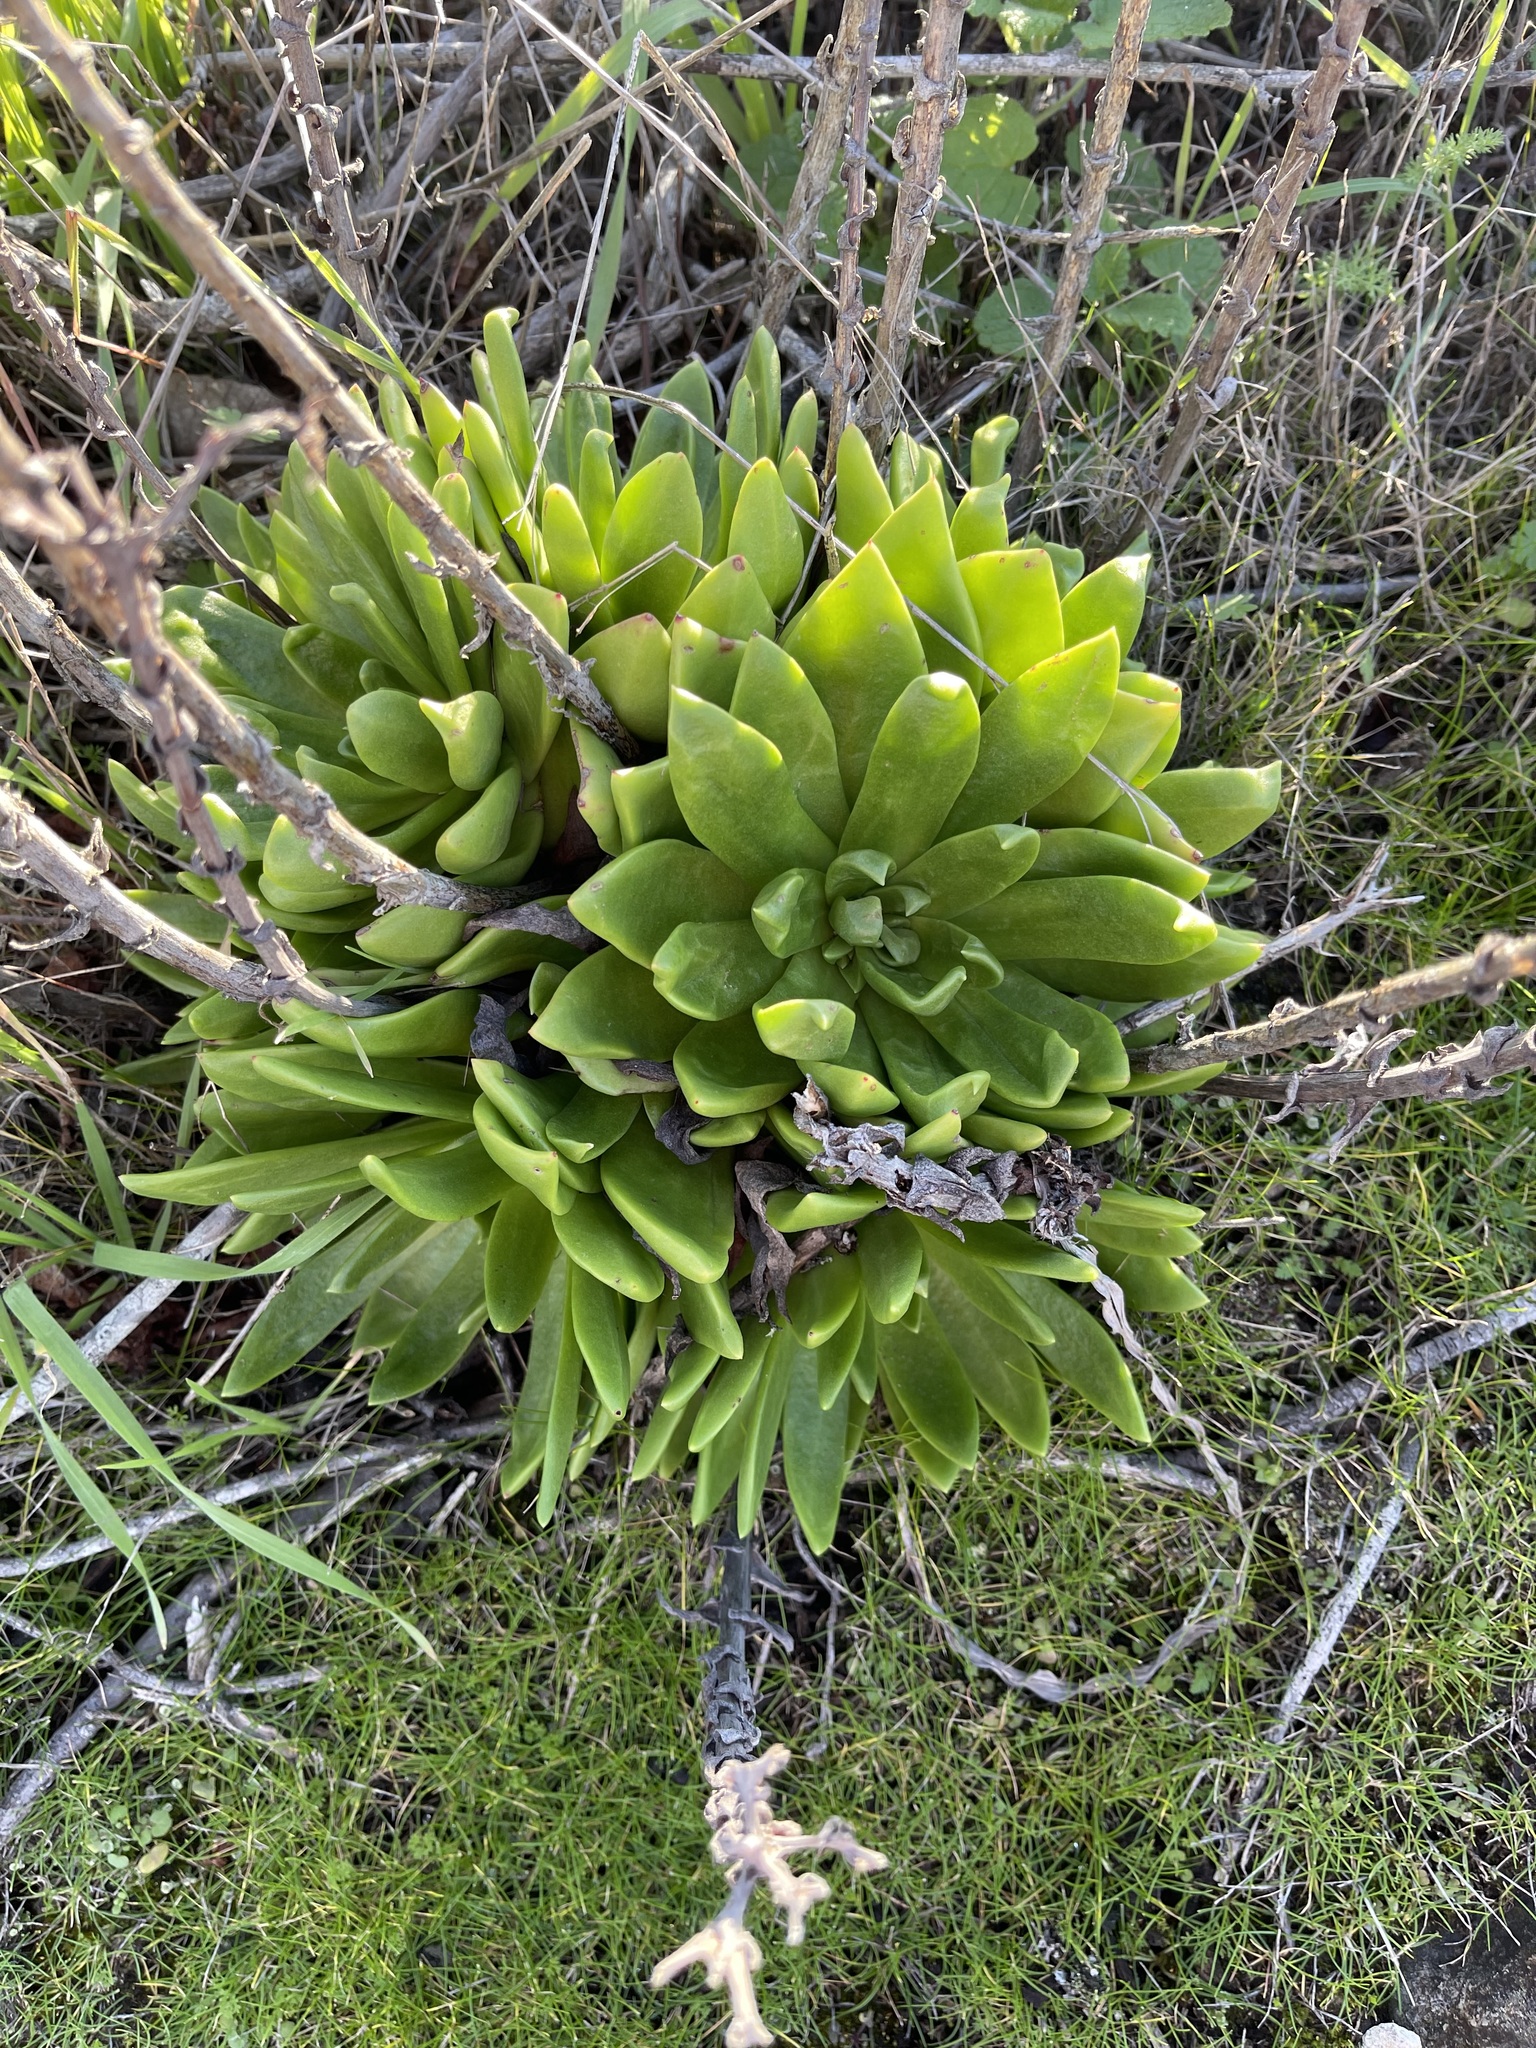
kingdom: Plantae
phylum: Tracheophyta
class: Magnoliopsida
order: Saxifragales
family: Crassulaceae
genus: Dudleya
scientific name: Dudleya caespitosa
